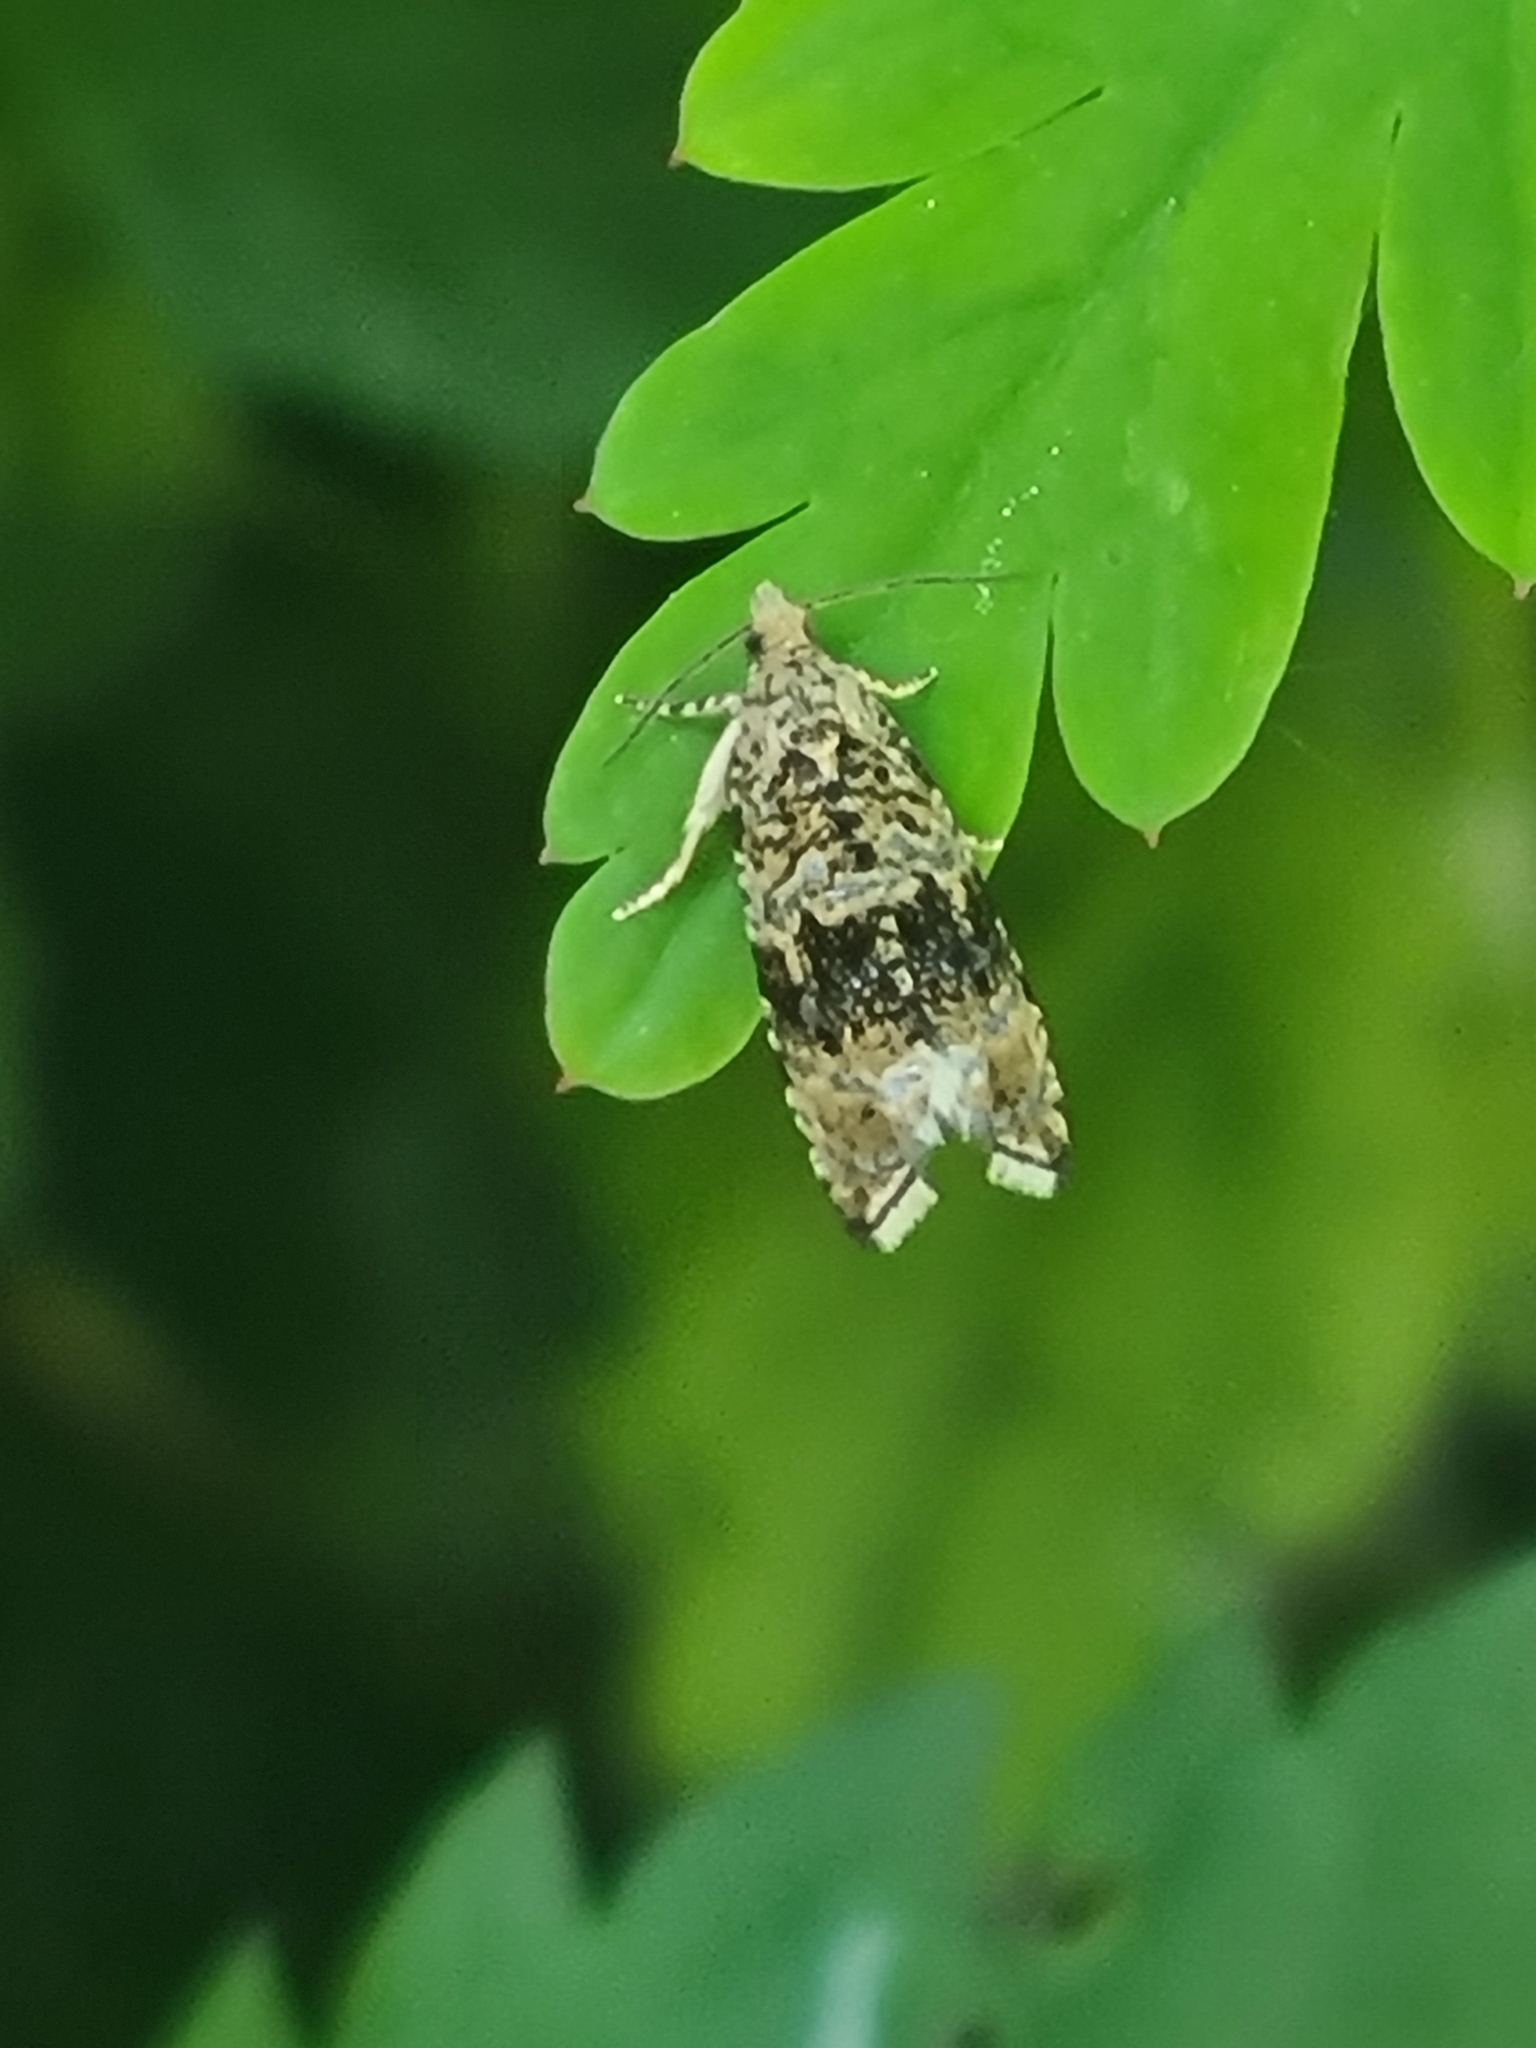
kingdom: Animalia
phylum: Arthropoda
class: Insecta
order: Lepidoptera
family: Tortricidae
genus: Syricoris
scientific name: Syricoris lacunana
